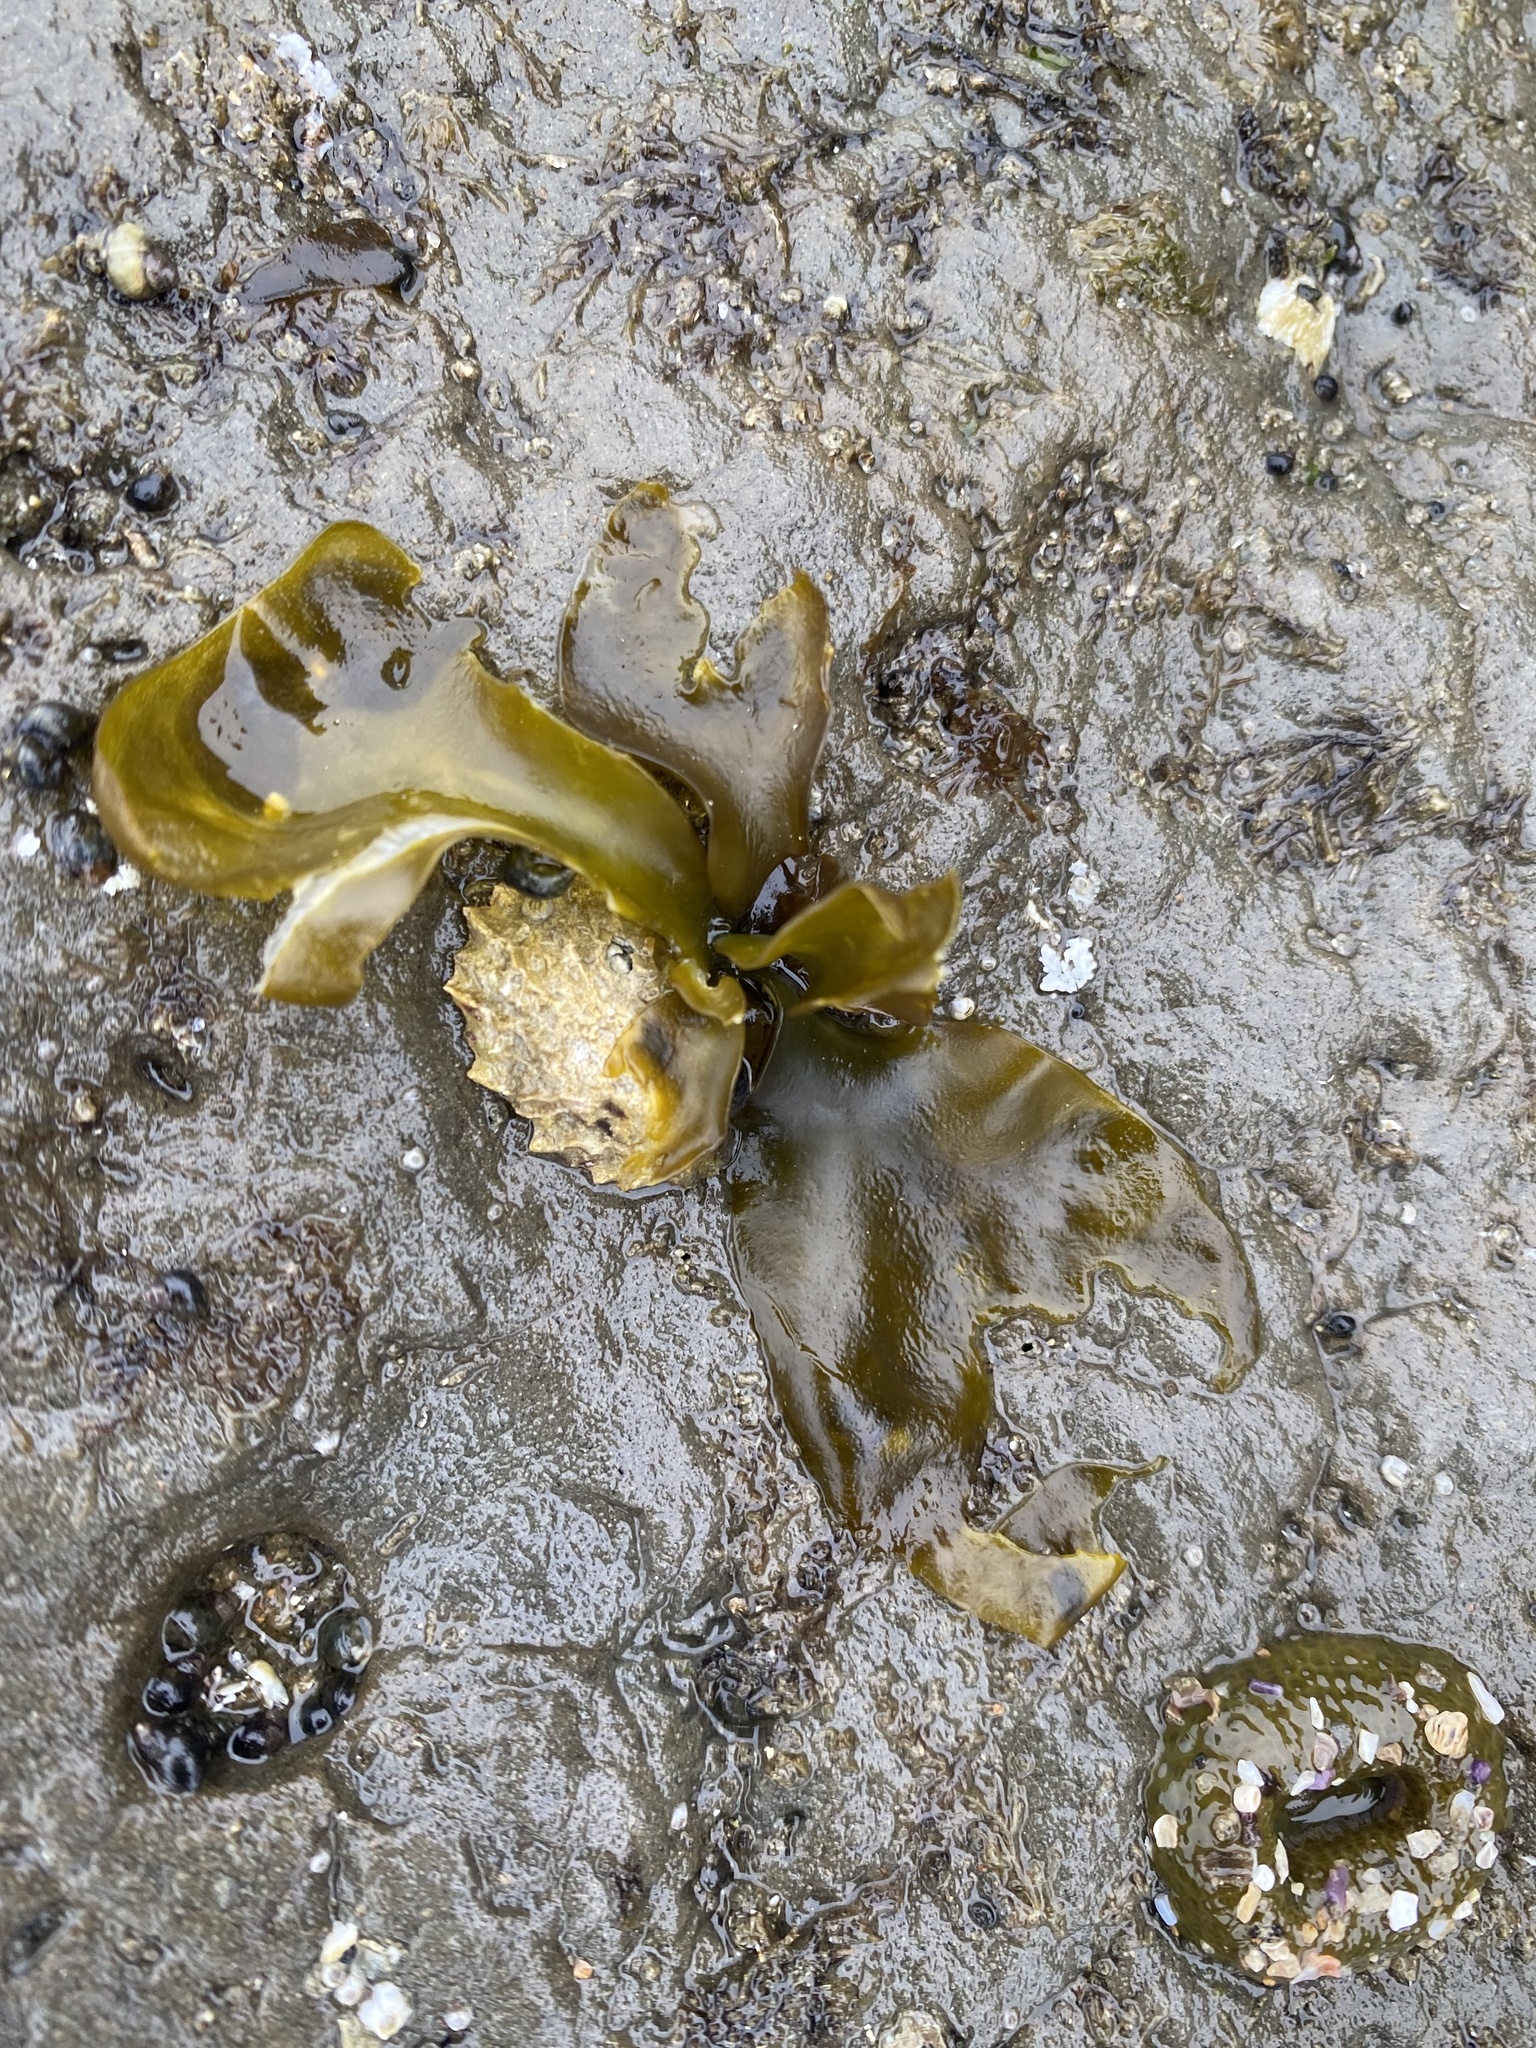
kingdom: Plantae
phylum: Rhodophyta
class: Florideophyceae
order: Gigartinales
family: Gigartinaceae
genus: Mazzaella
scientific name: Mazzaella flaccida
